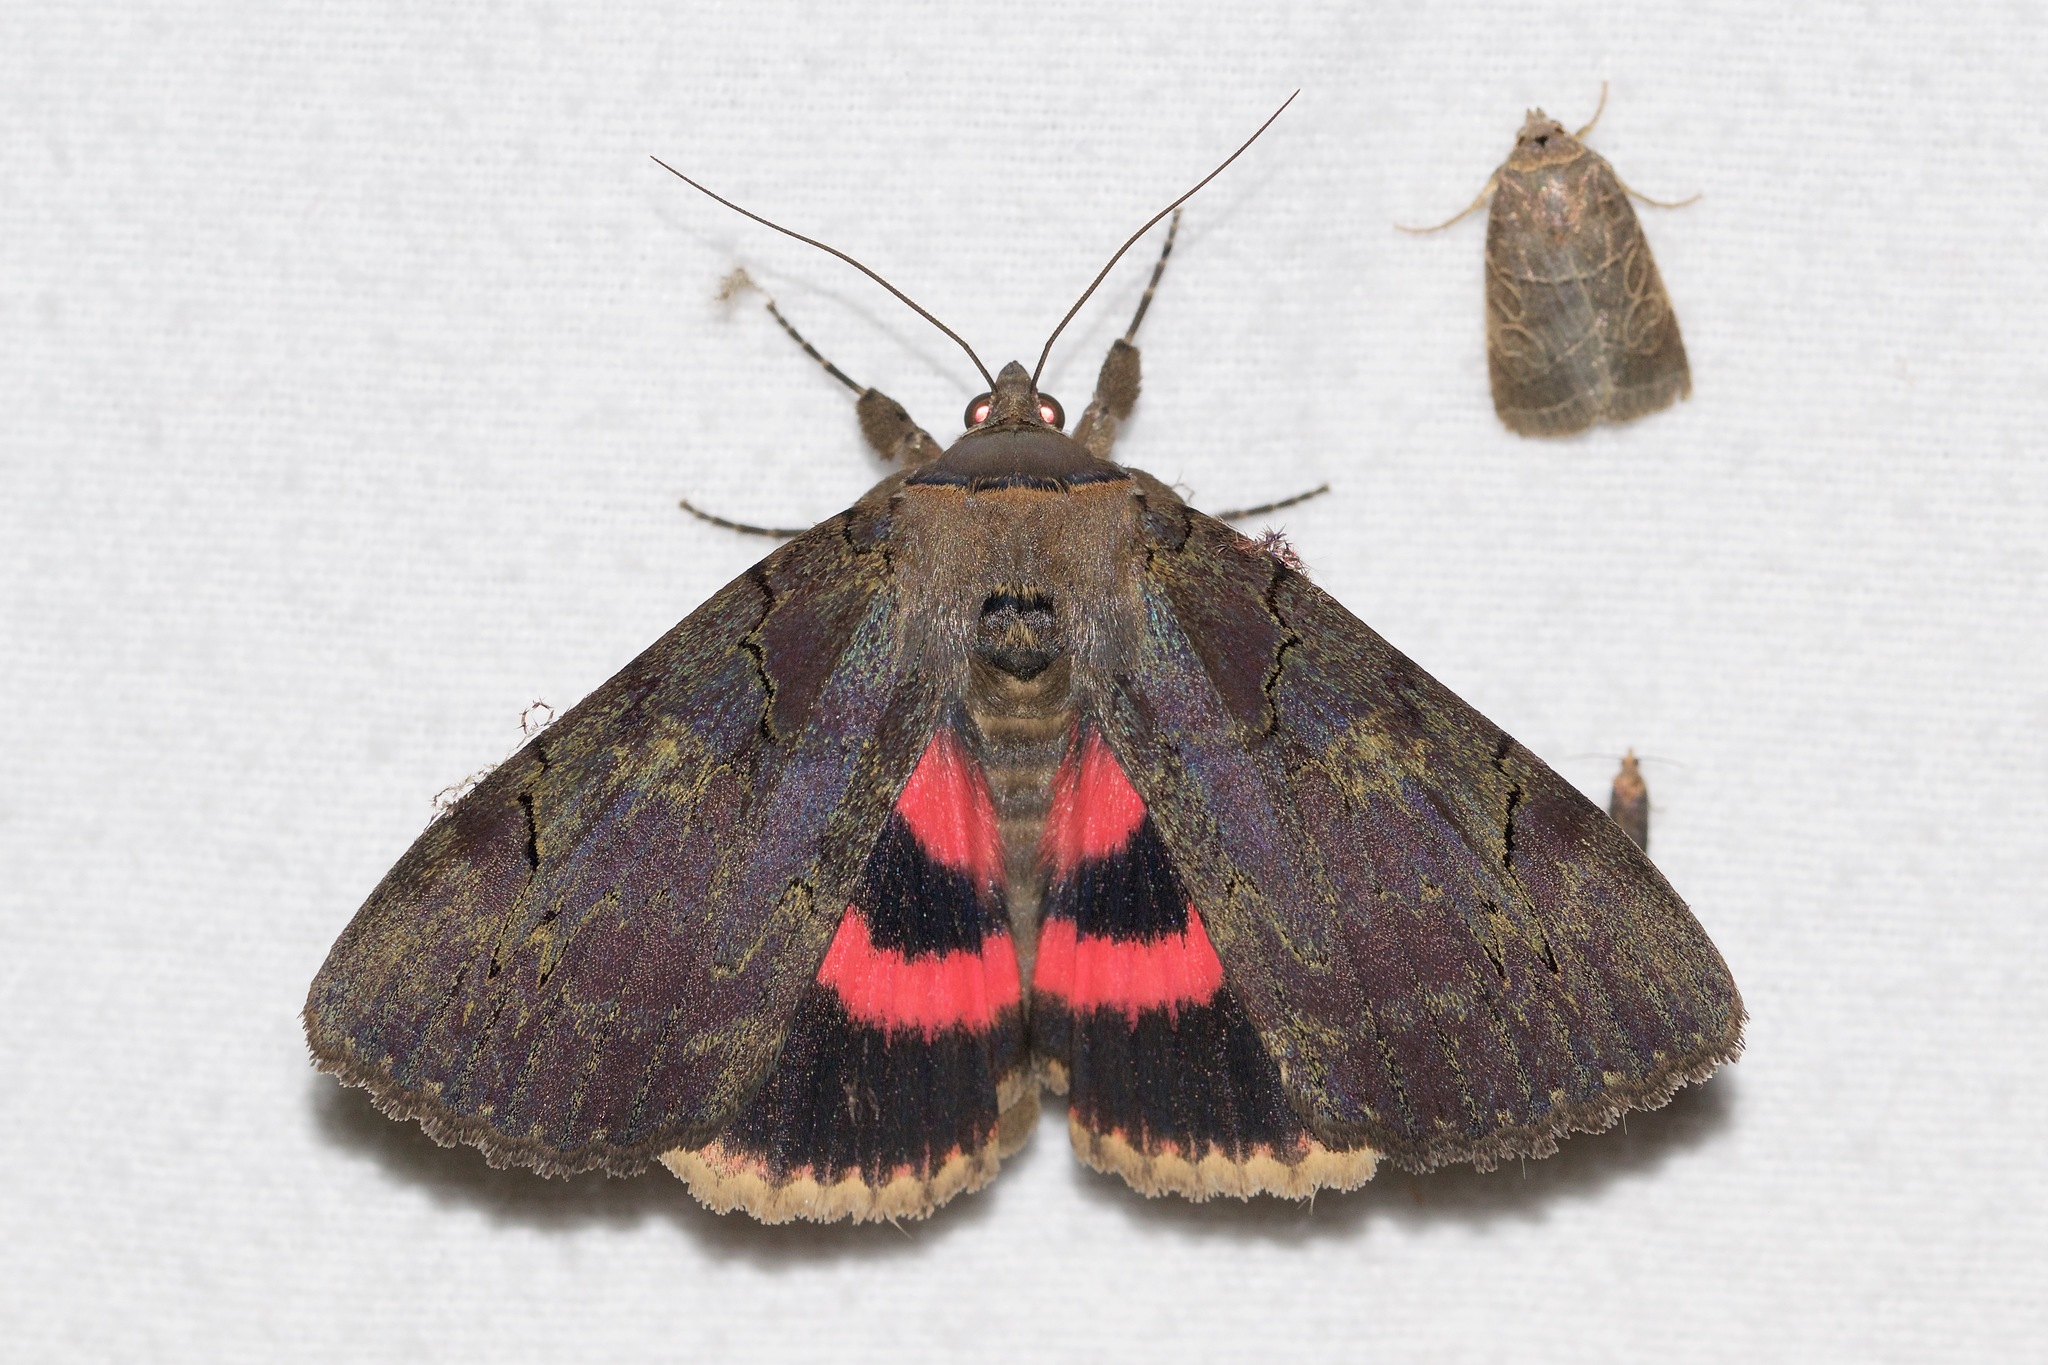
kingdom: Animalia
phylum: Arthropoda
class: Insecta
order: Lepidoptera
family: Erebidae
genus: Catocala
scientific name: Catocala cara
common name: Darling underwing
